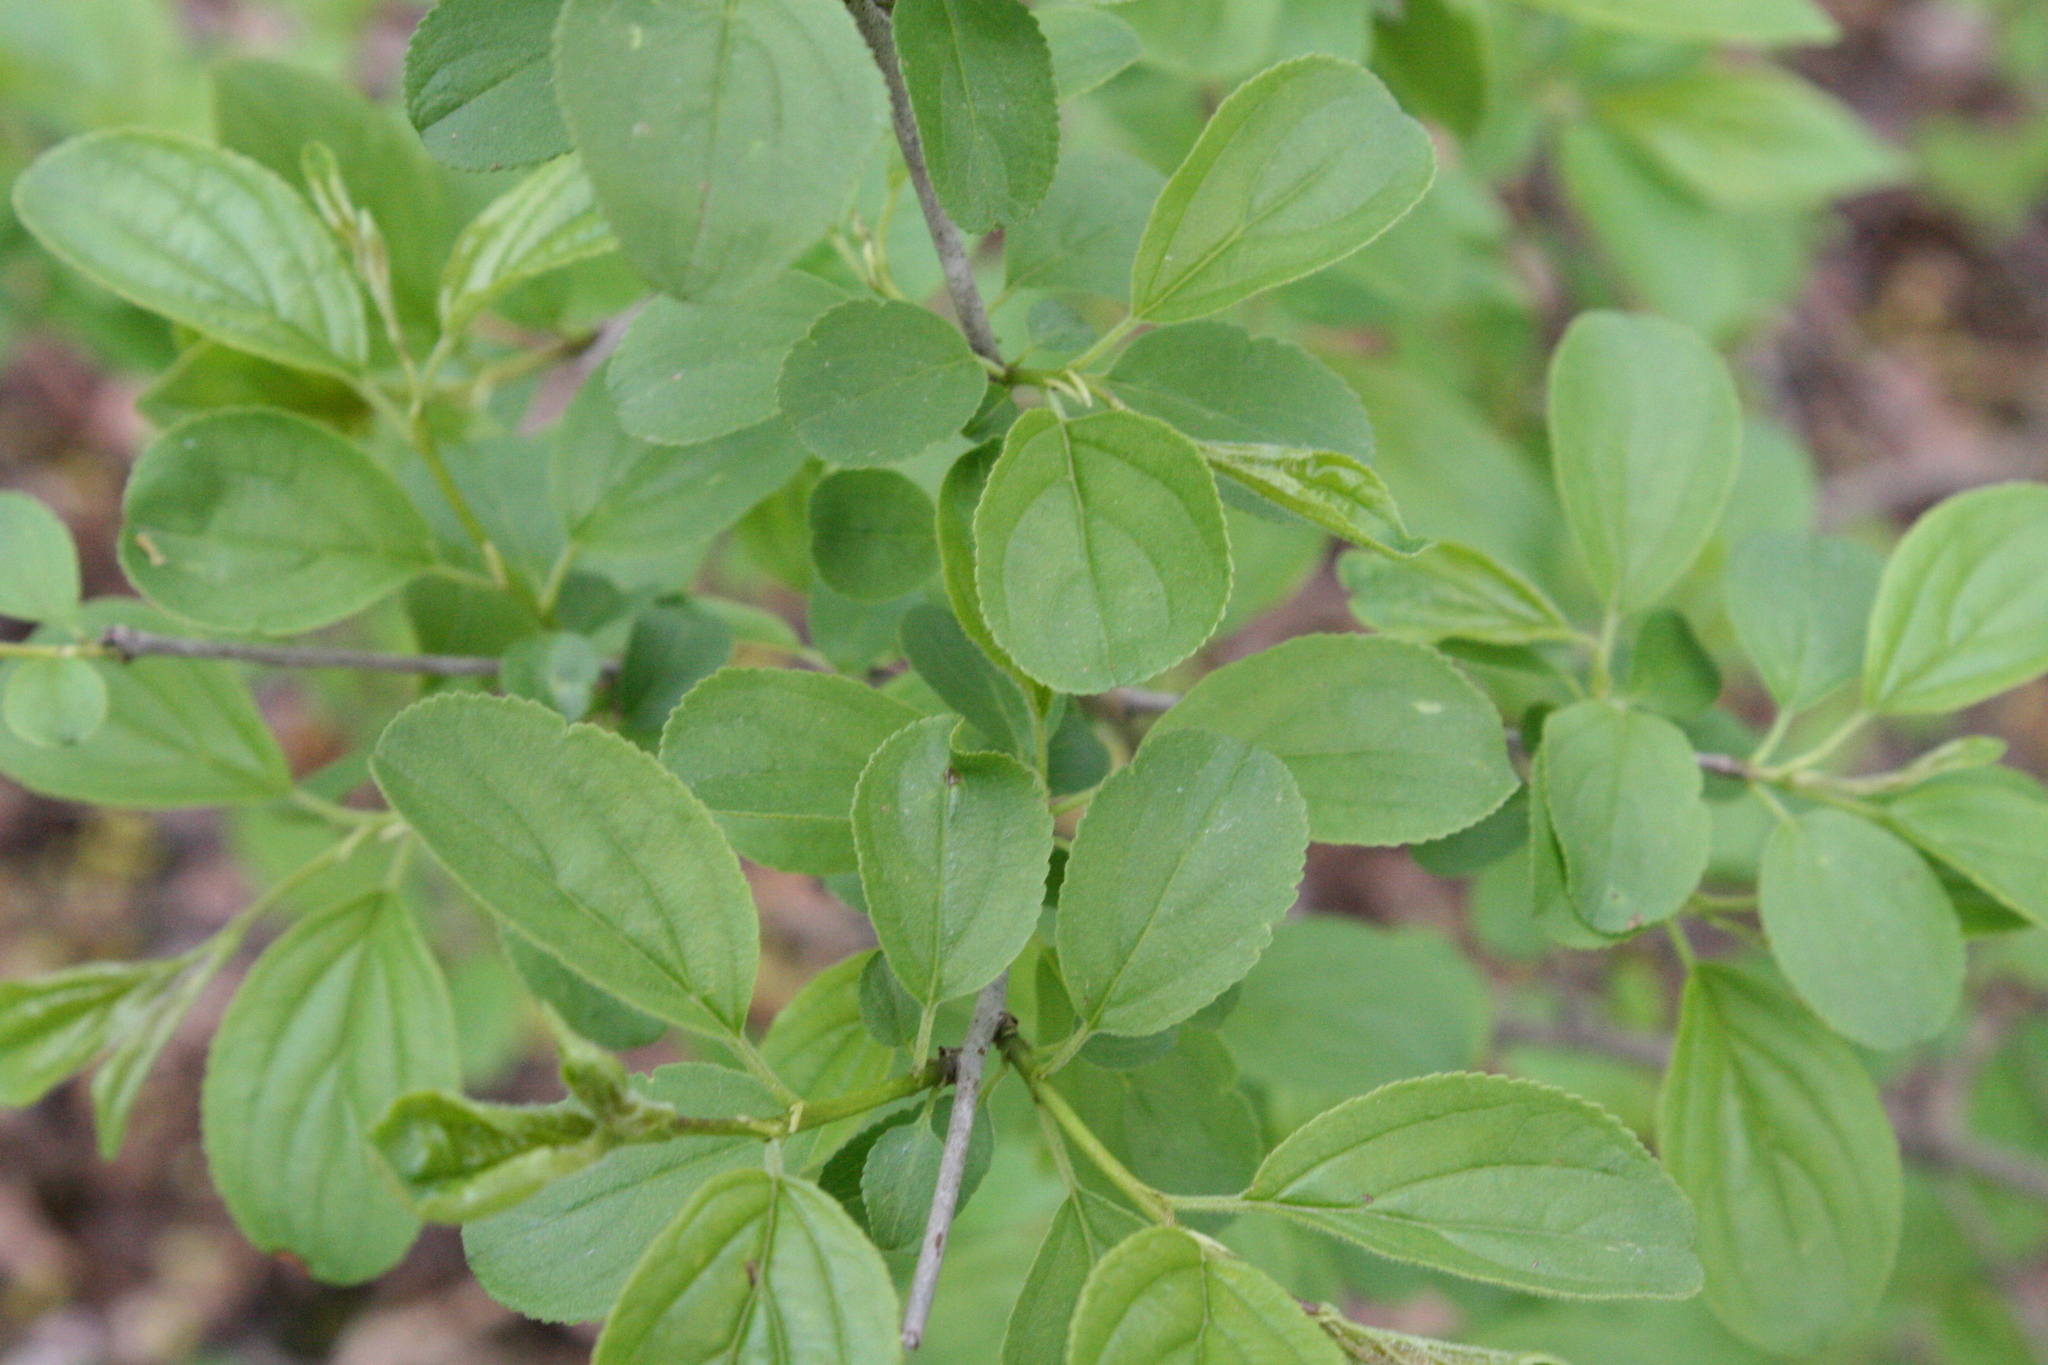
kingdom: Plantae
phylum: Tracheophyta
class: Magnoliopsida
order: Rosales
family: Rhamnaceae
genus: Rhamnus
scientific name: Rhamnus cathartica
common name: Common buckthorn
